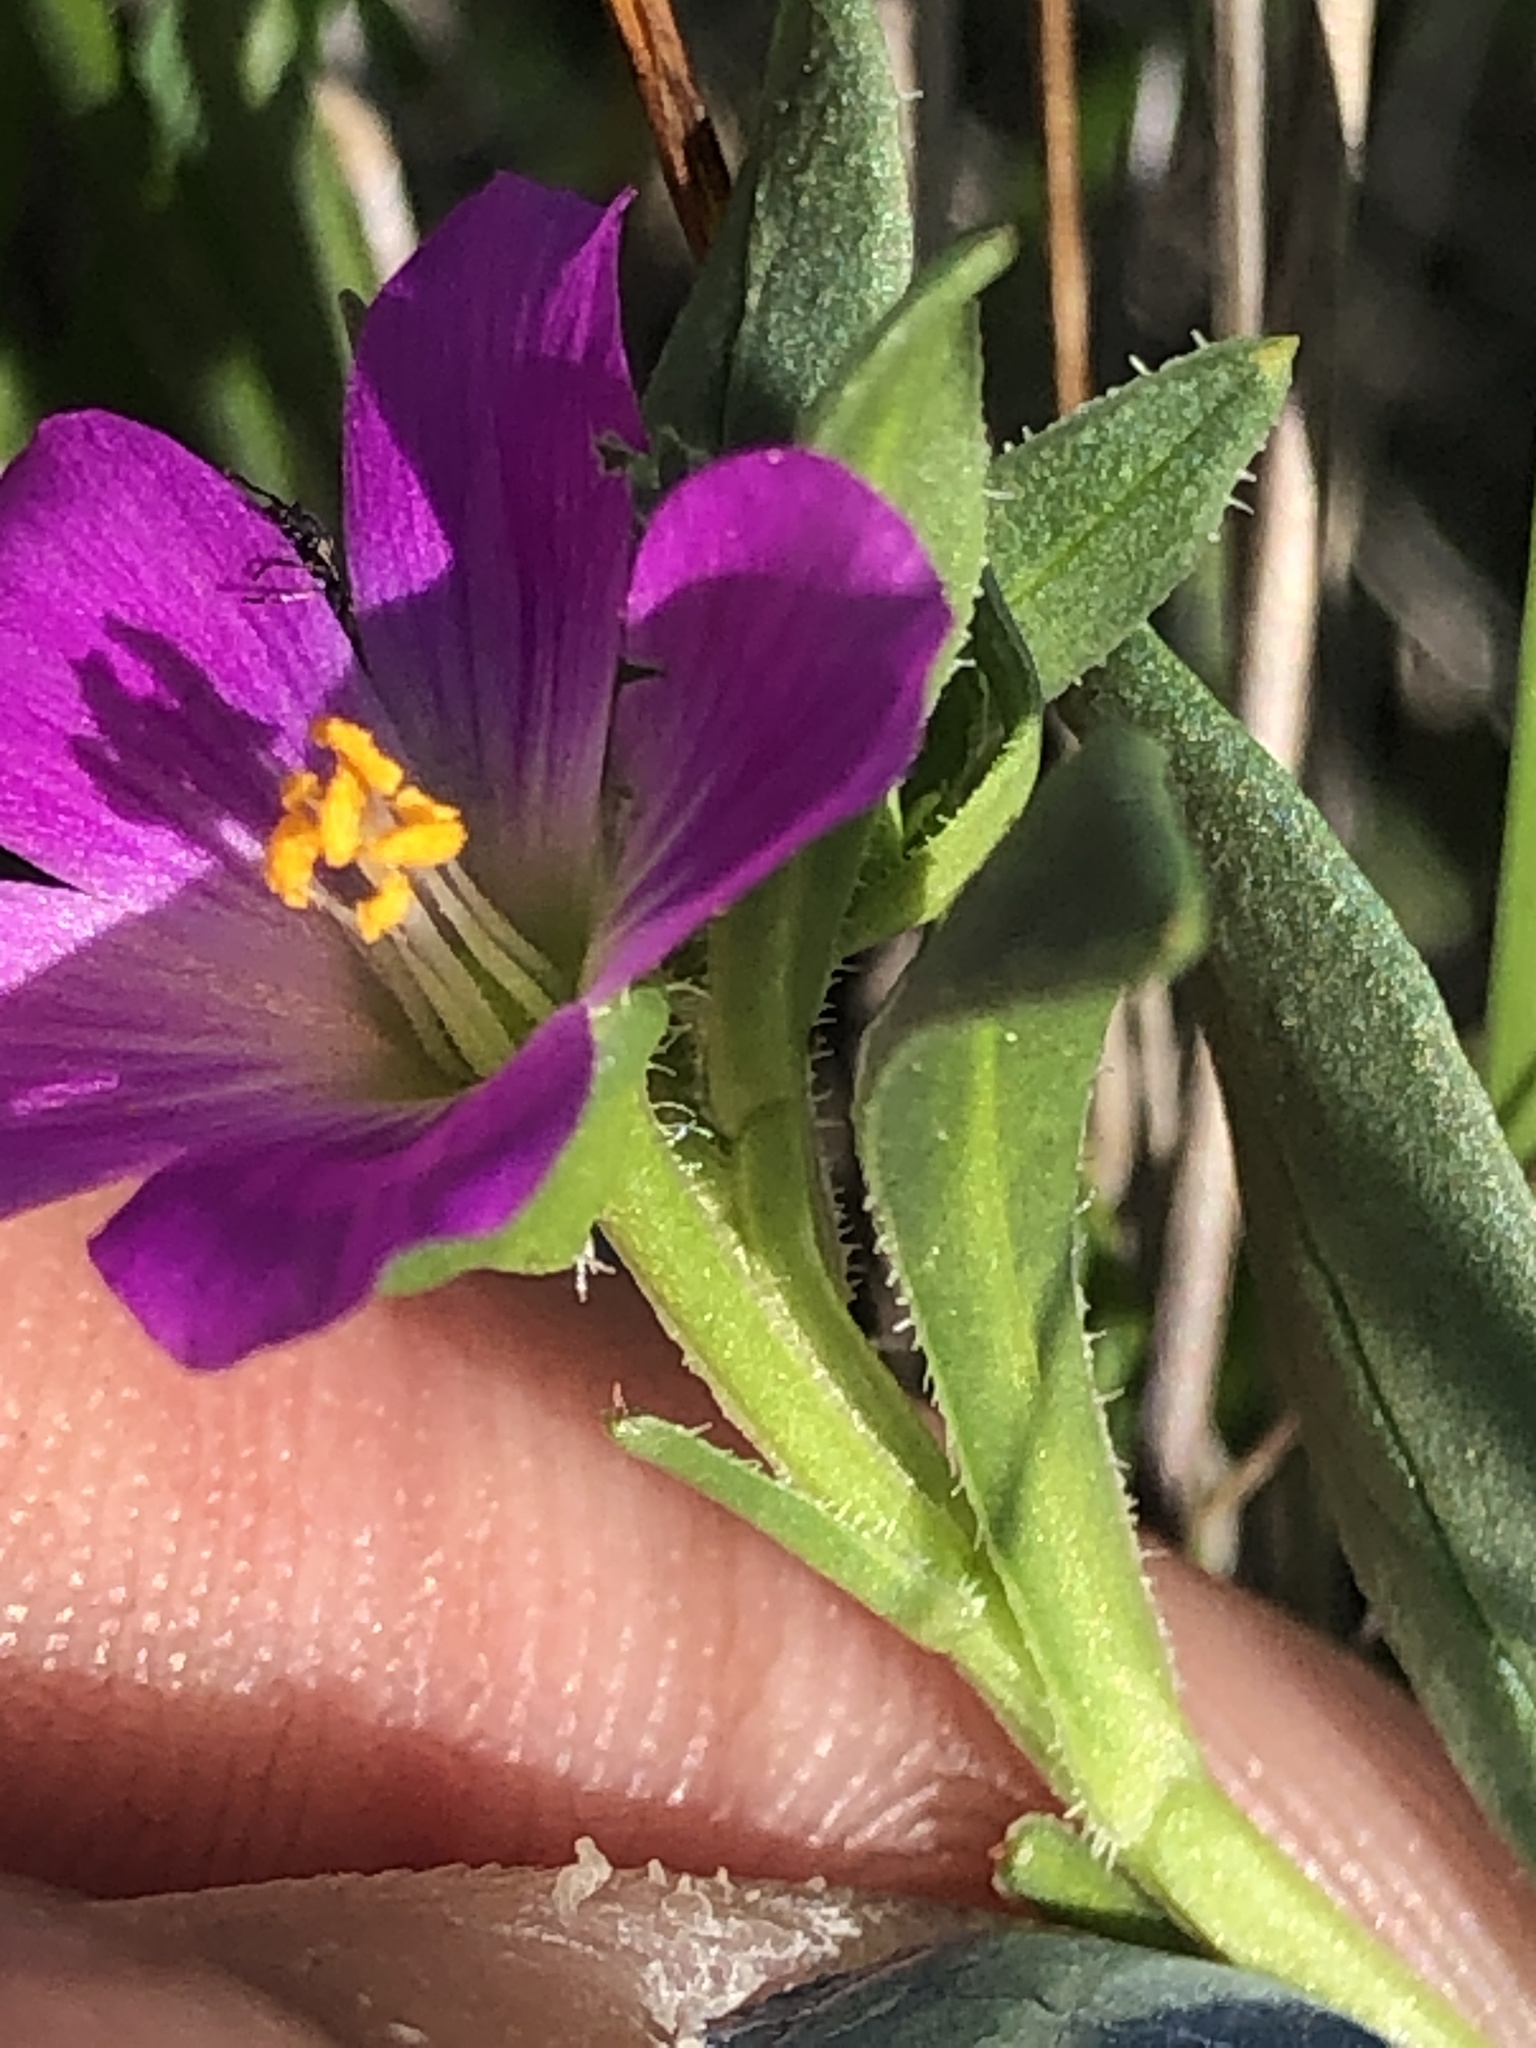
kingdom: Plantae
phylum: Tracheophyta
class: Magnoliopsida
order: Caryophyllales
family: Montiaceae
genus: Calandrinia
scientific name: Calandrinia menziesii
